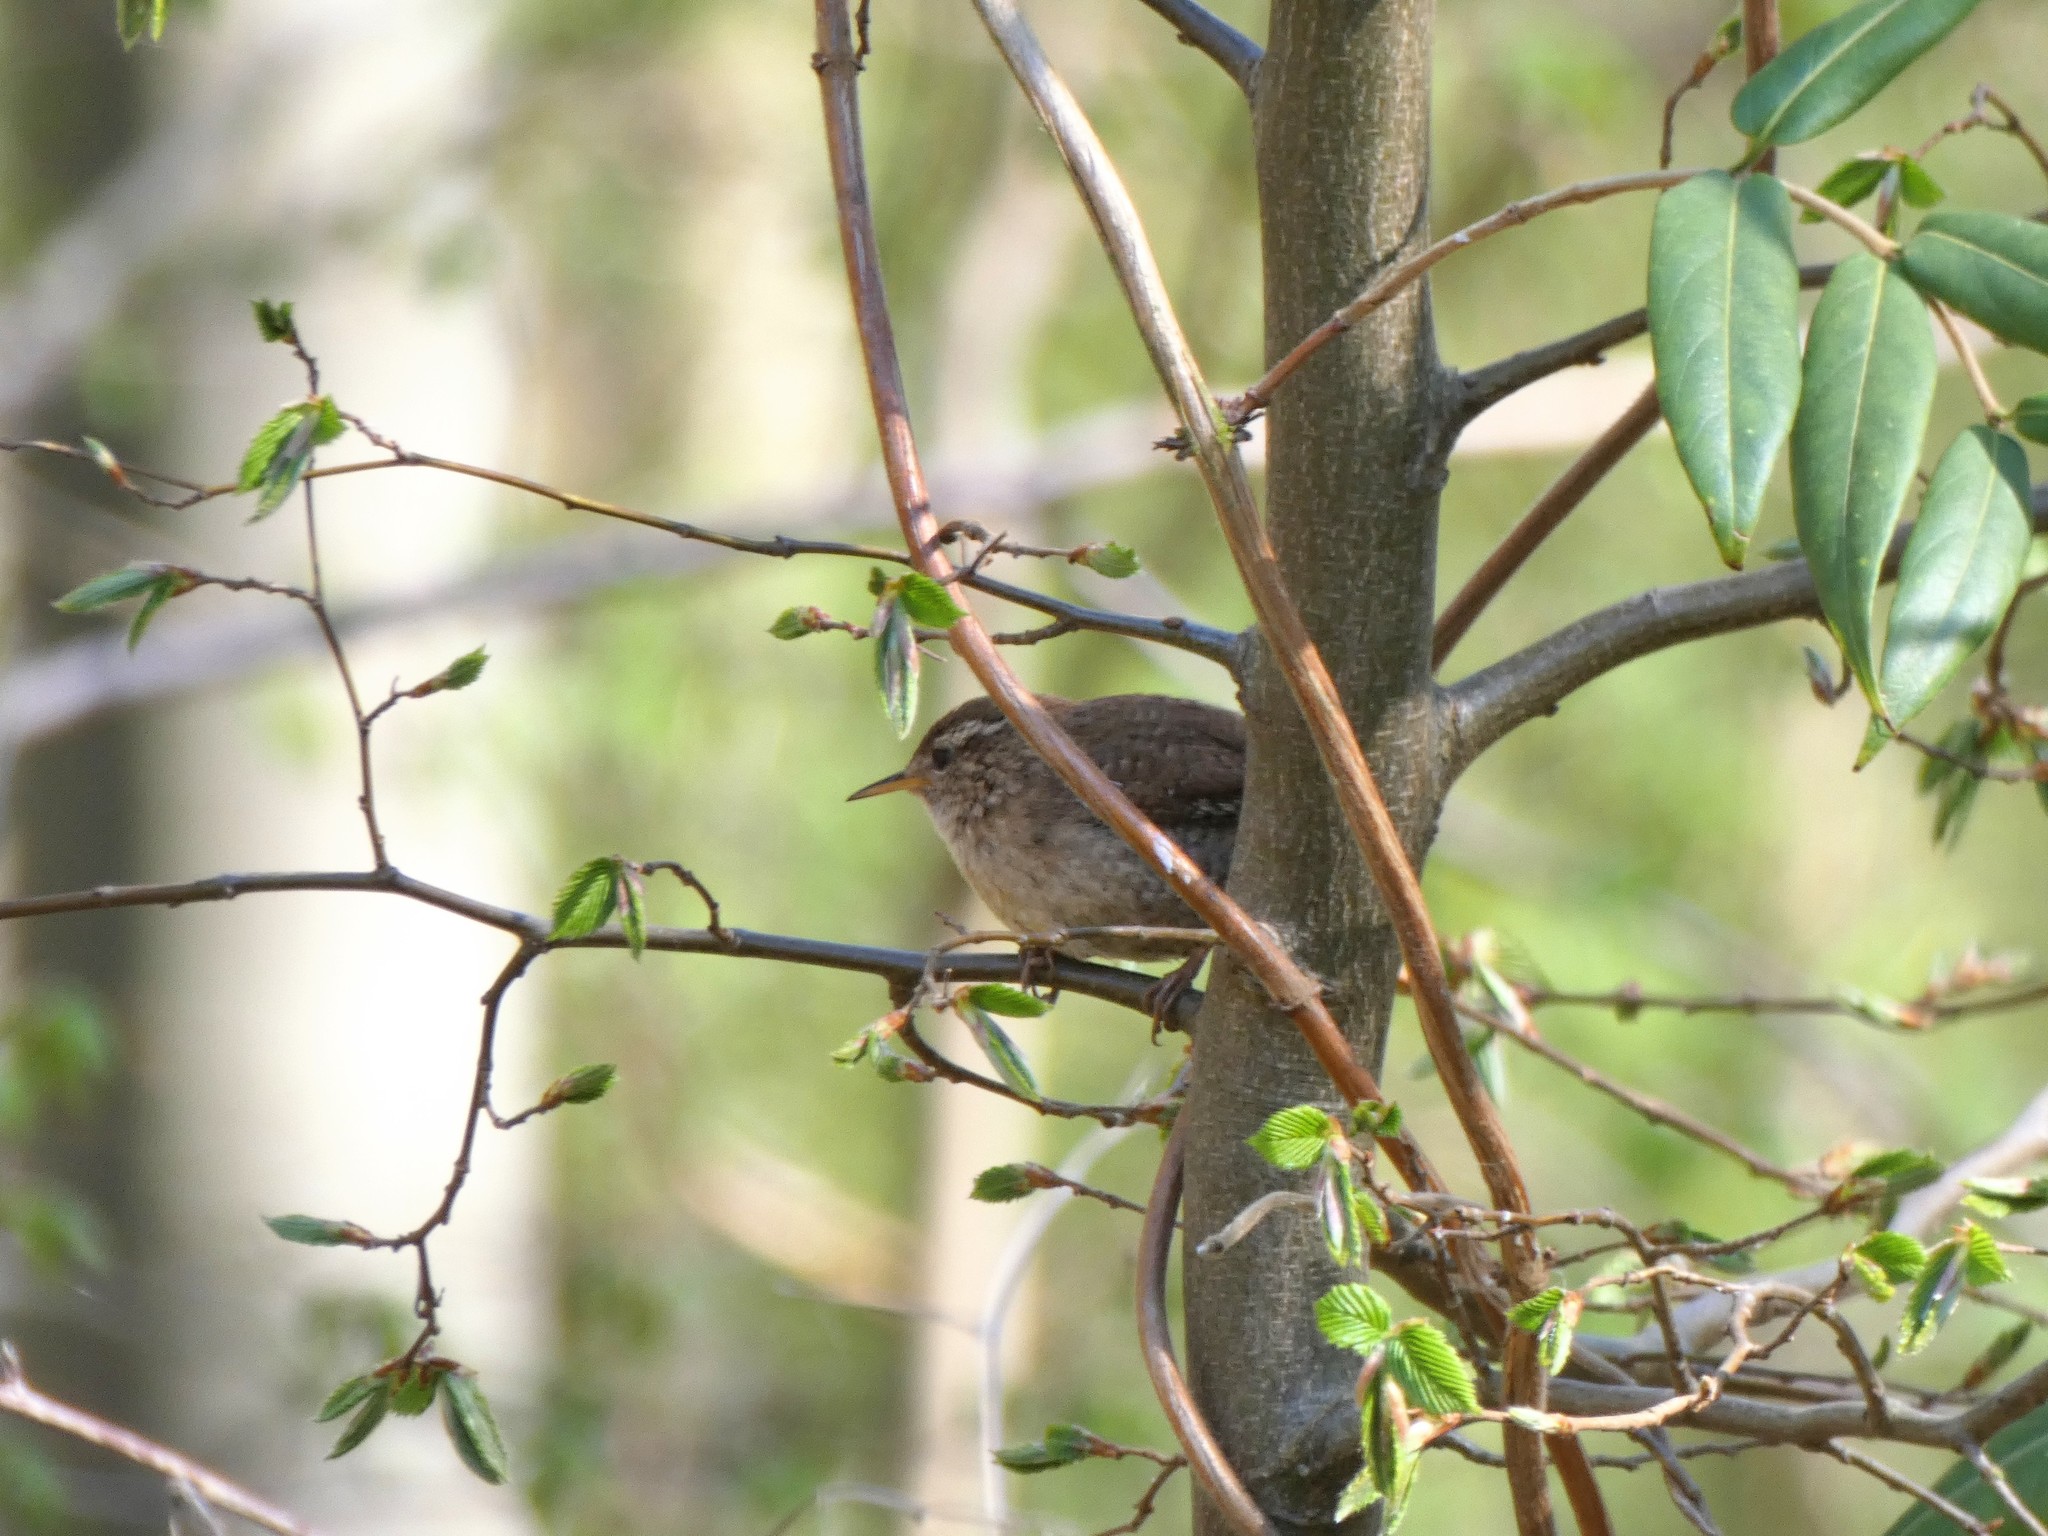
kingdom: Animalia
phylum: Chordata
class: Aves
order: Passeriformes
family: Troglodytidae
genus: Troglodytes
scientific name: Troglodytes troglodytes
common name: Eurasian wren
